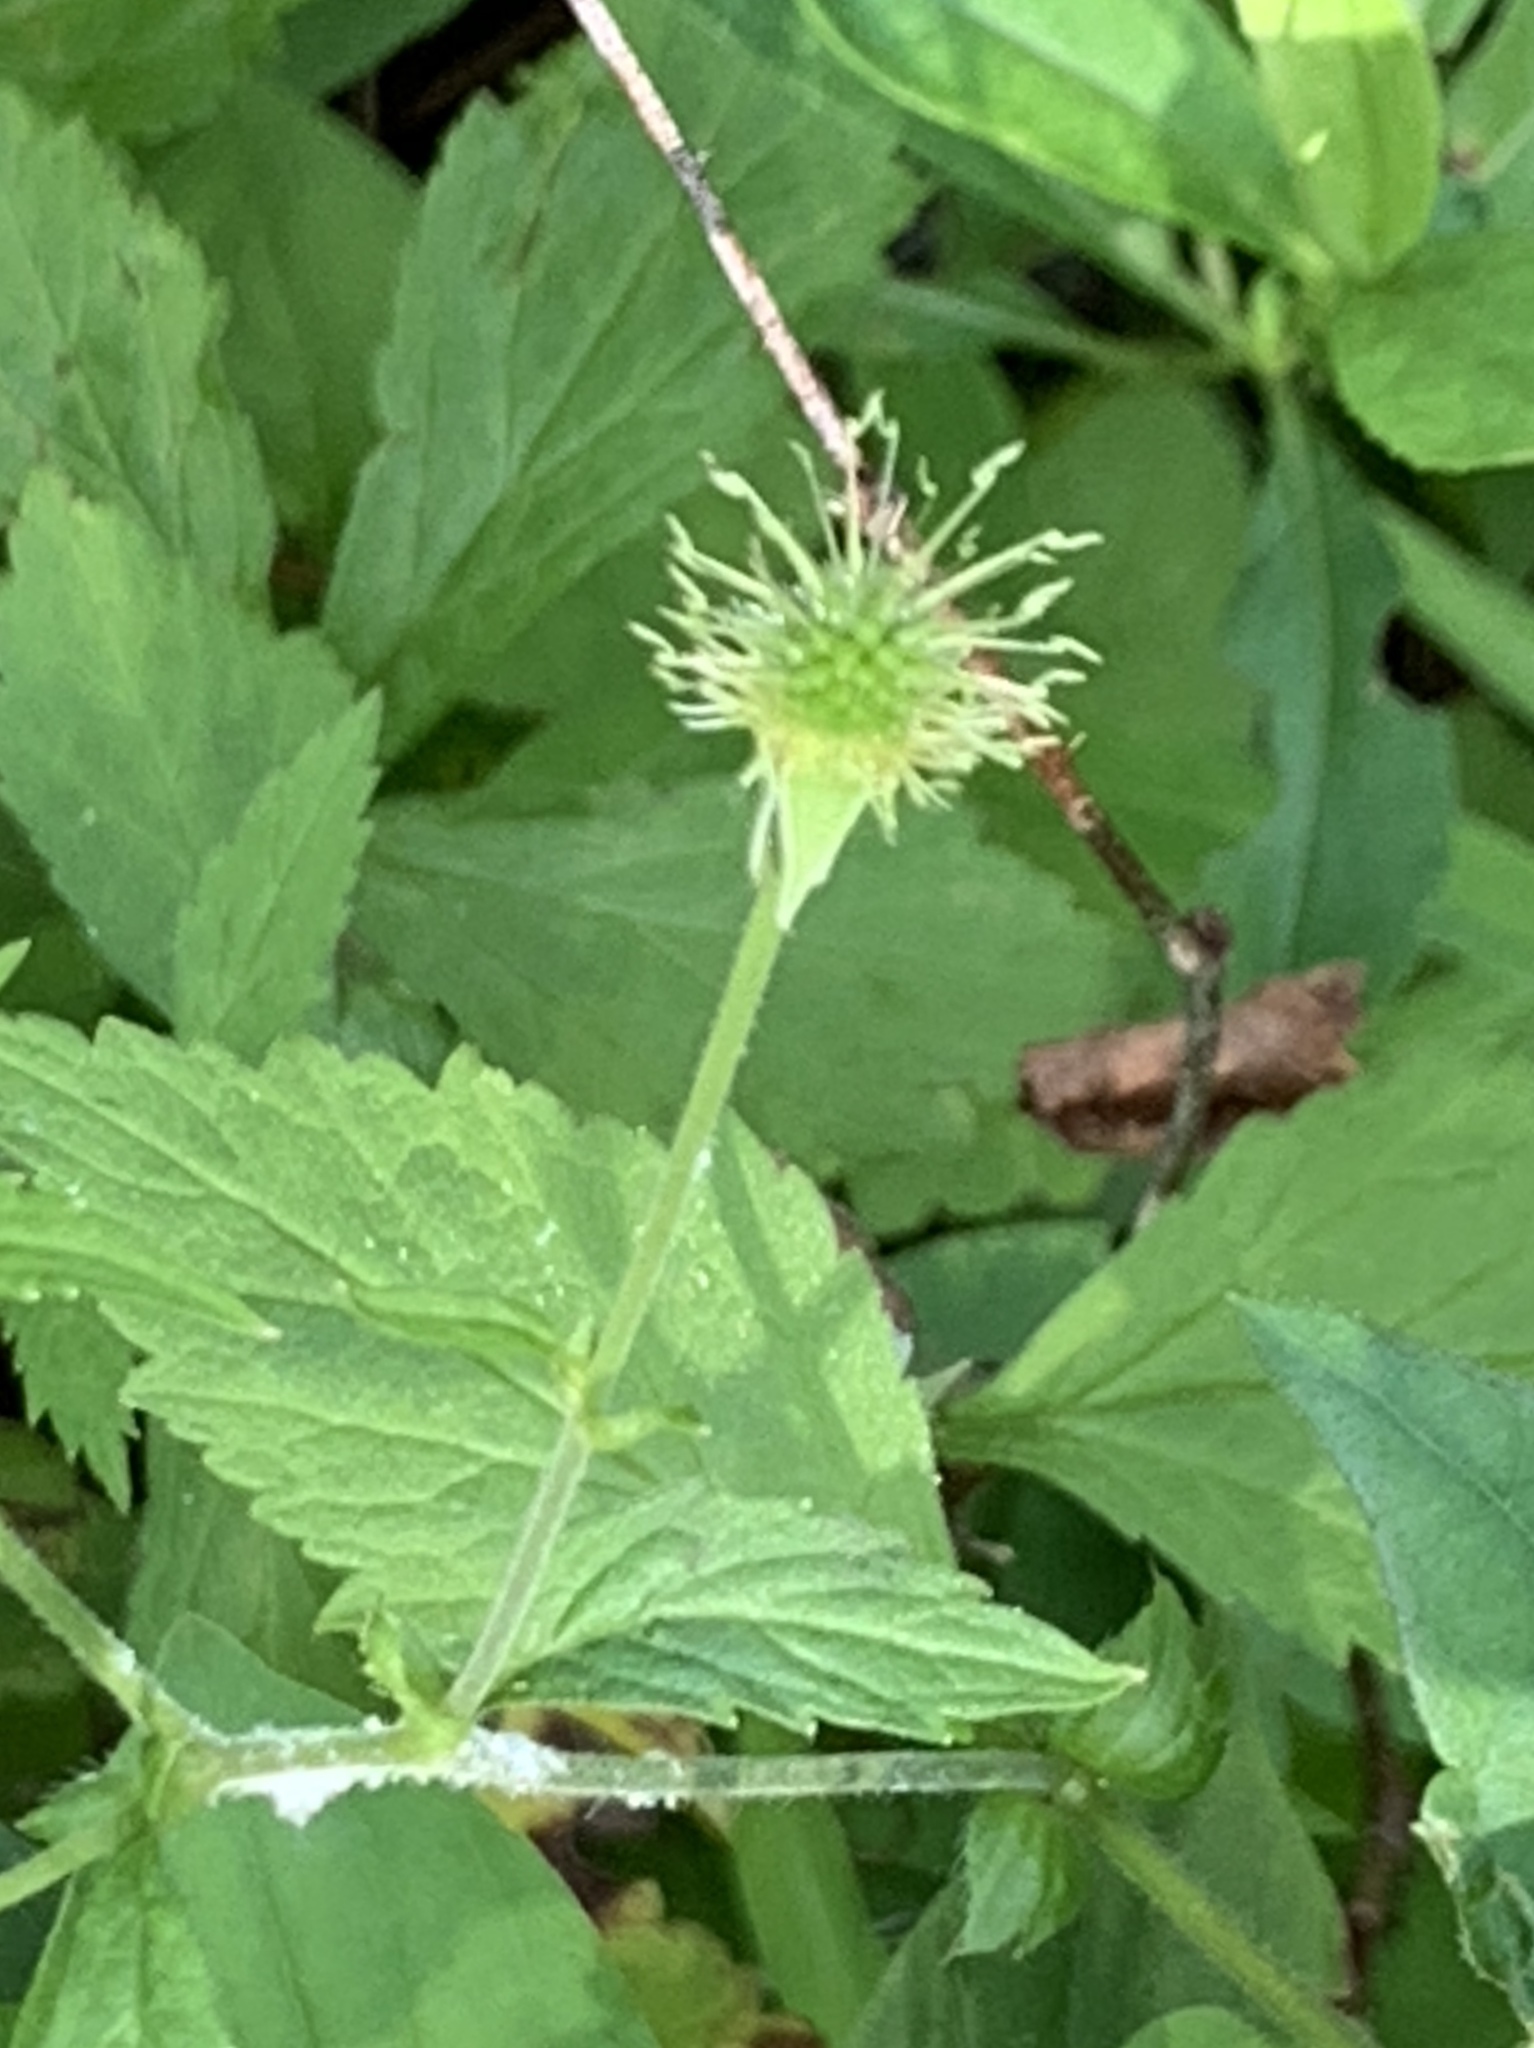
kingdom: Plantae
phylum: Tracheophyta
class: Magnoliopsida
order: Rosales
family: Rosaceae
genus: Geum
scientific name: Geum canadense
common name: White avens
